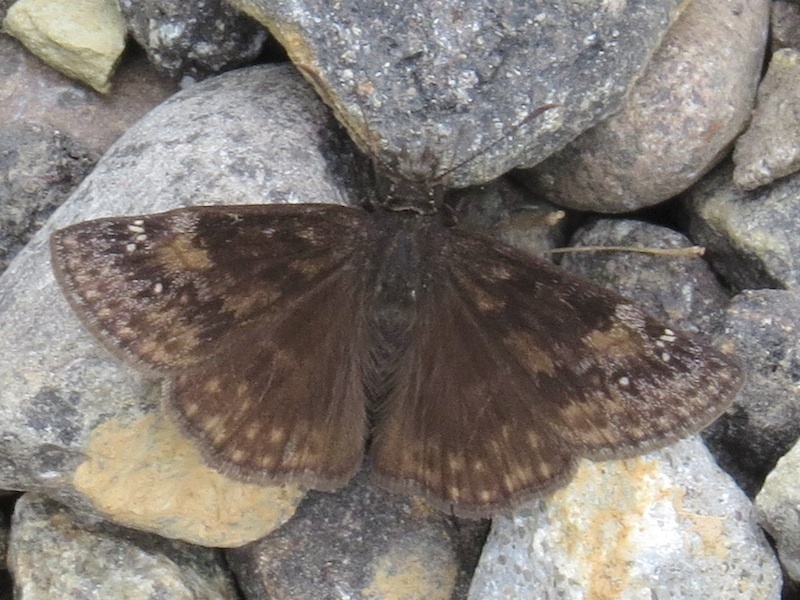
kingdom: Animalia
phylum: Arthropoda
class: Insecta
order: Lepidoptera
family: Hesperiidae
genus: Erynnis
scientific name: Erynnis baptisiae
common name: Wild indigo duskywing
